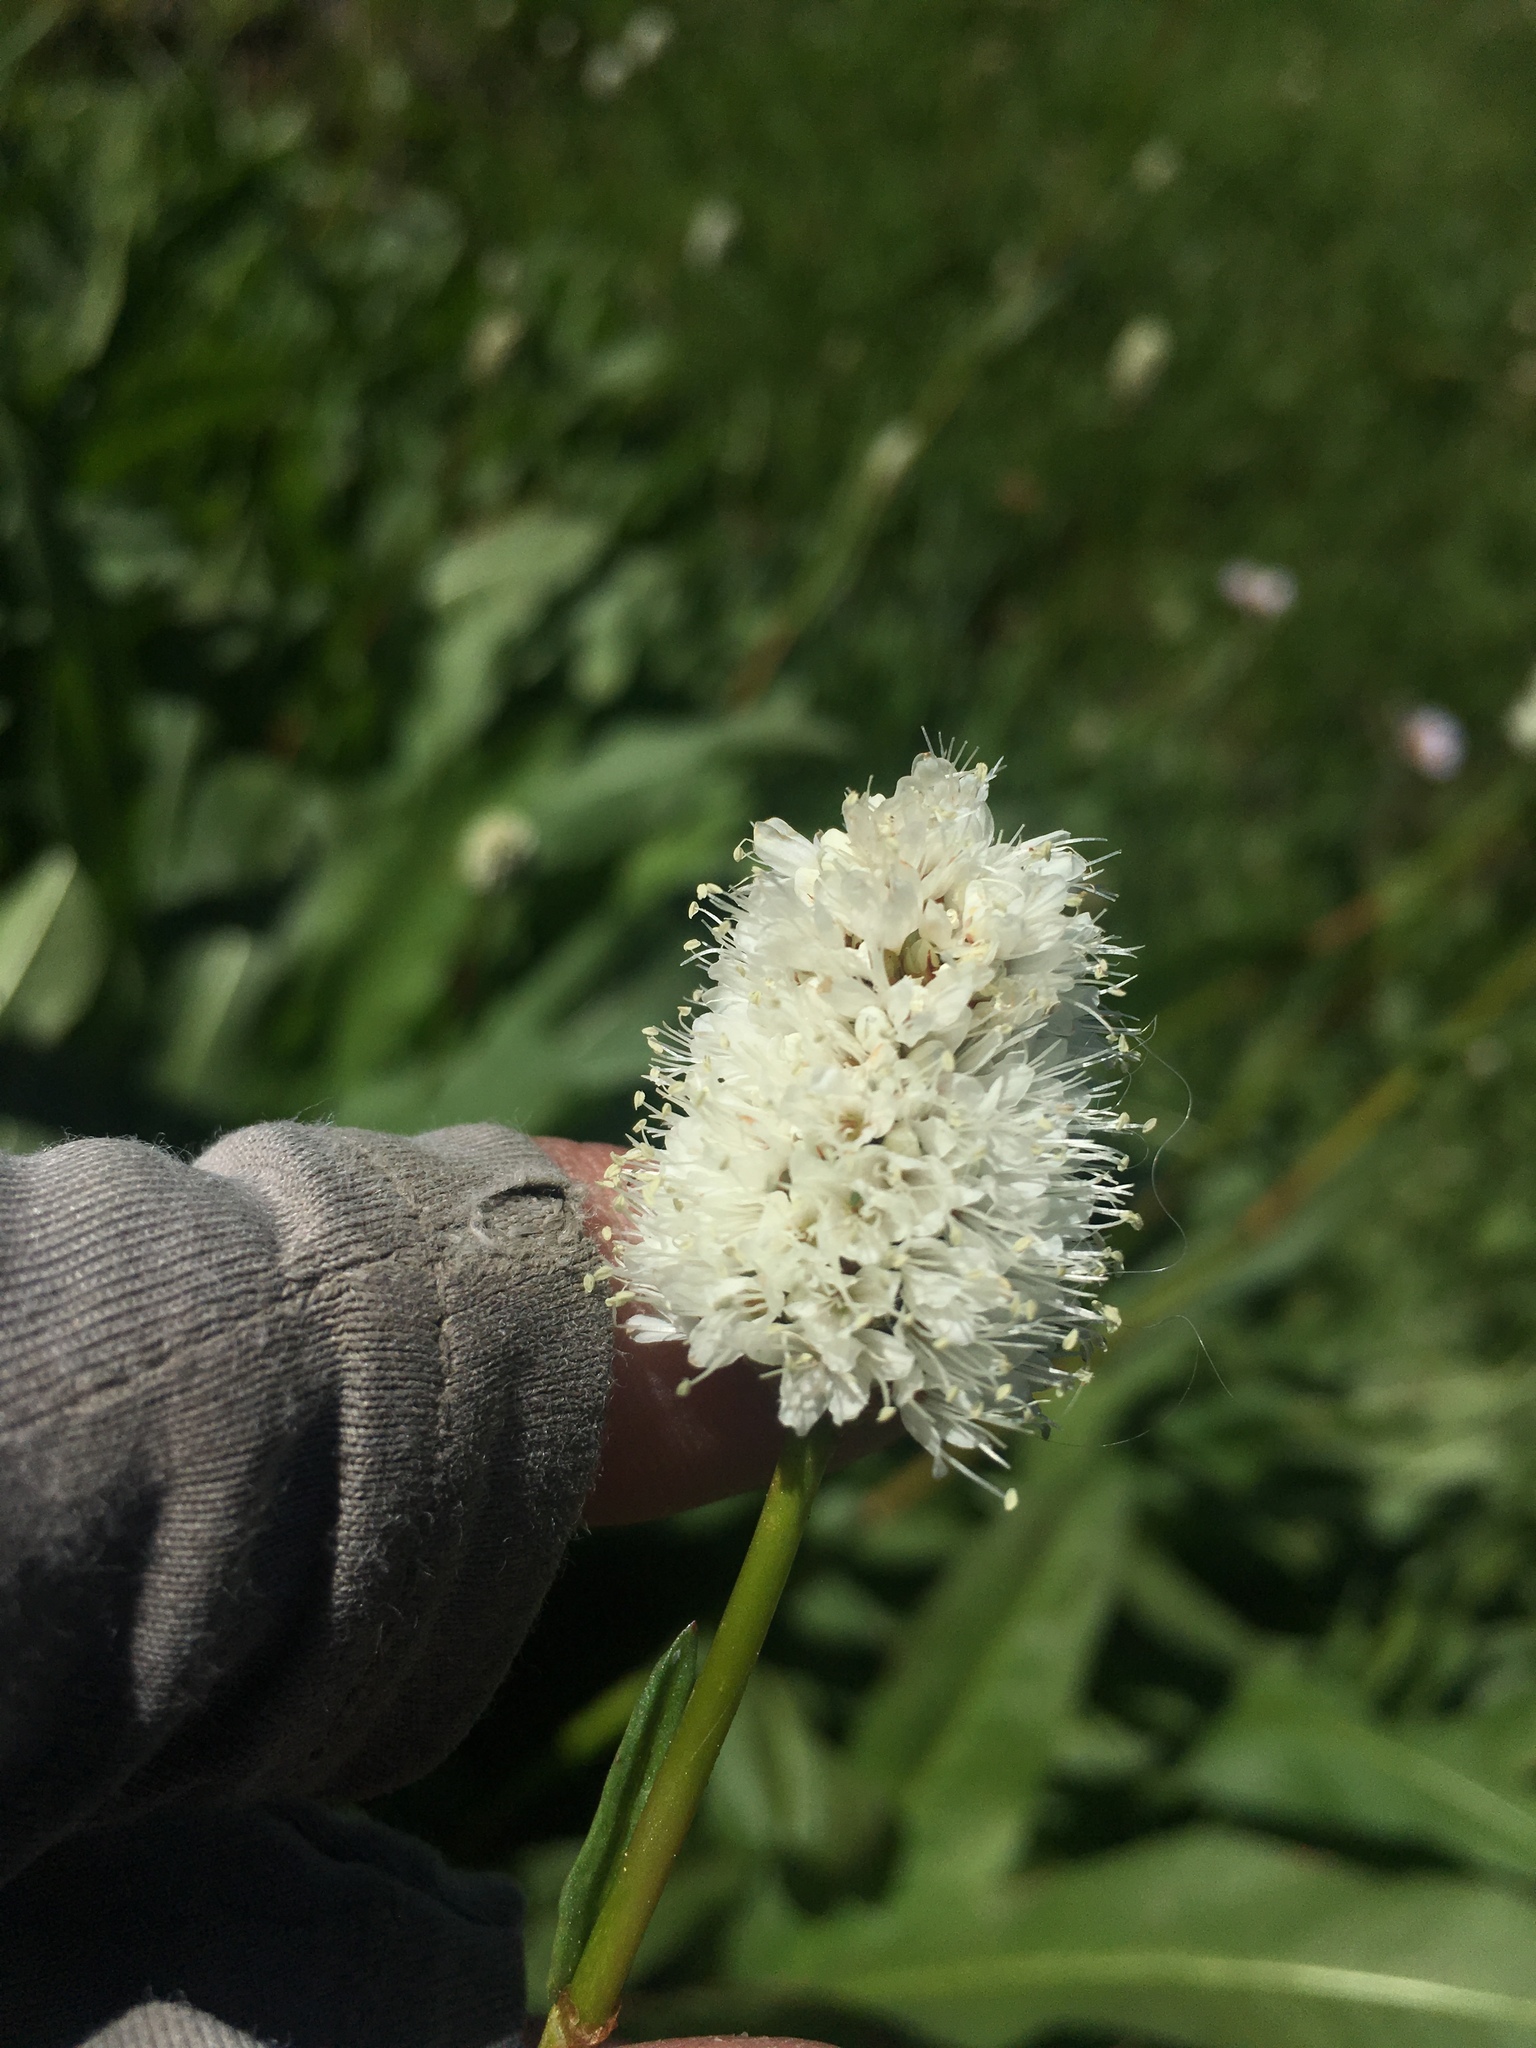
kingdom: Plantae
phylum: Tracheophyta
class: Magnoliopsida
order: Caryophyllales
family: Polygonaceae
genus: Bistorta
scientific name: Bistorta bistortoides
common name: American bistort
